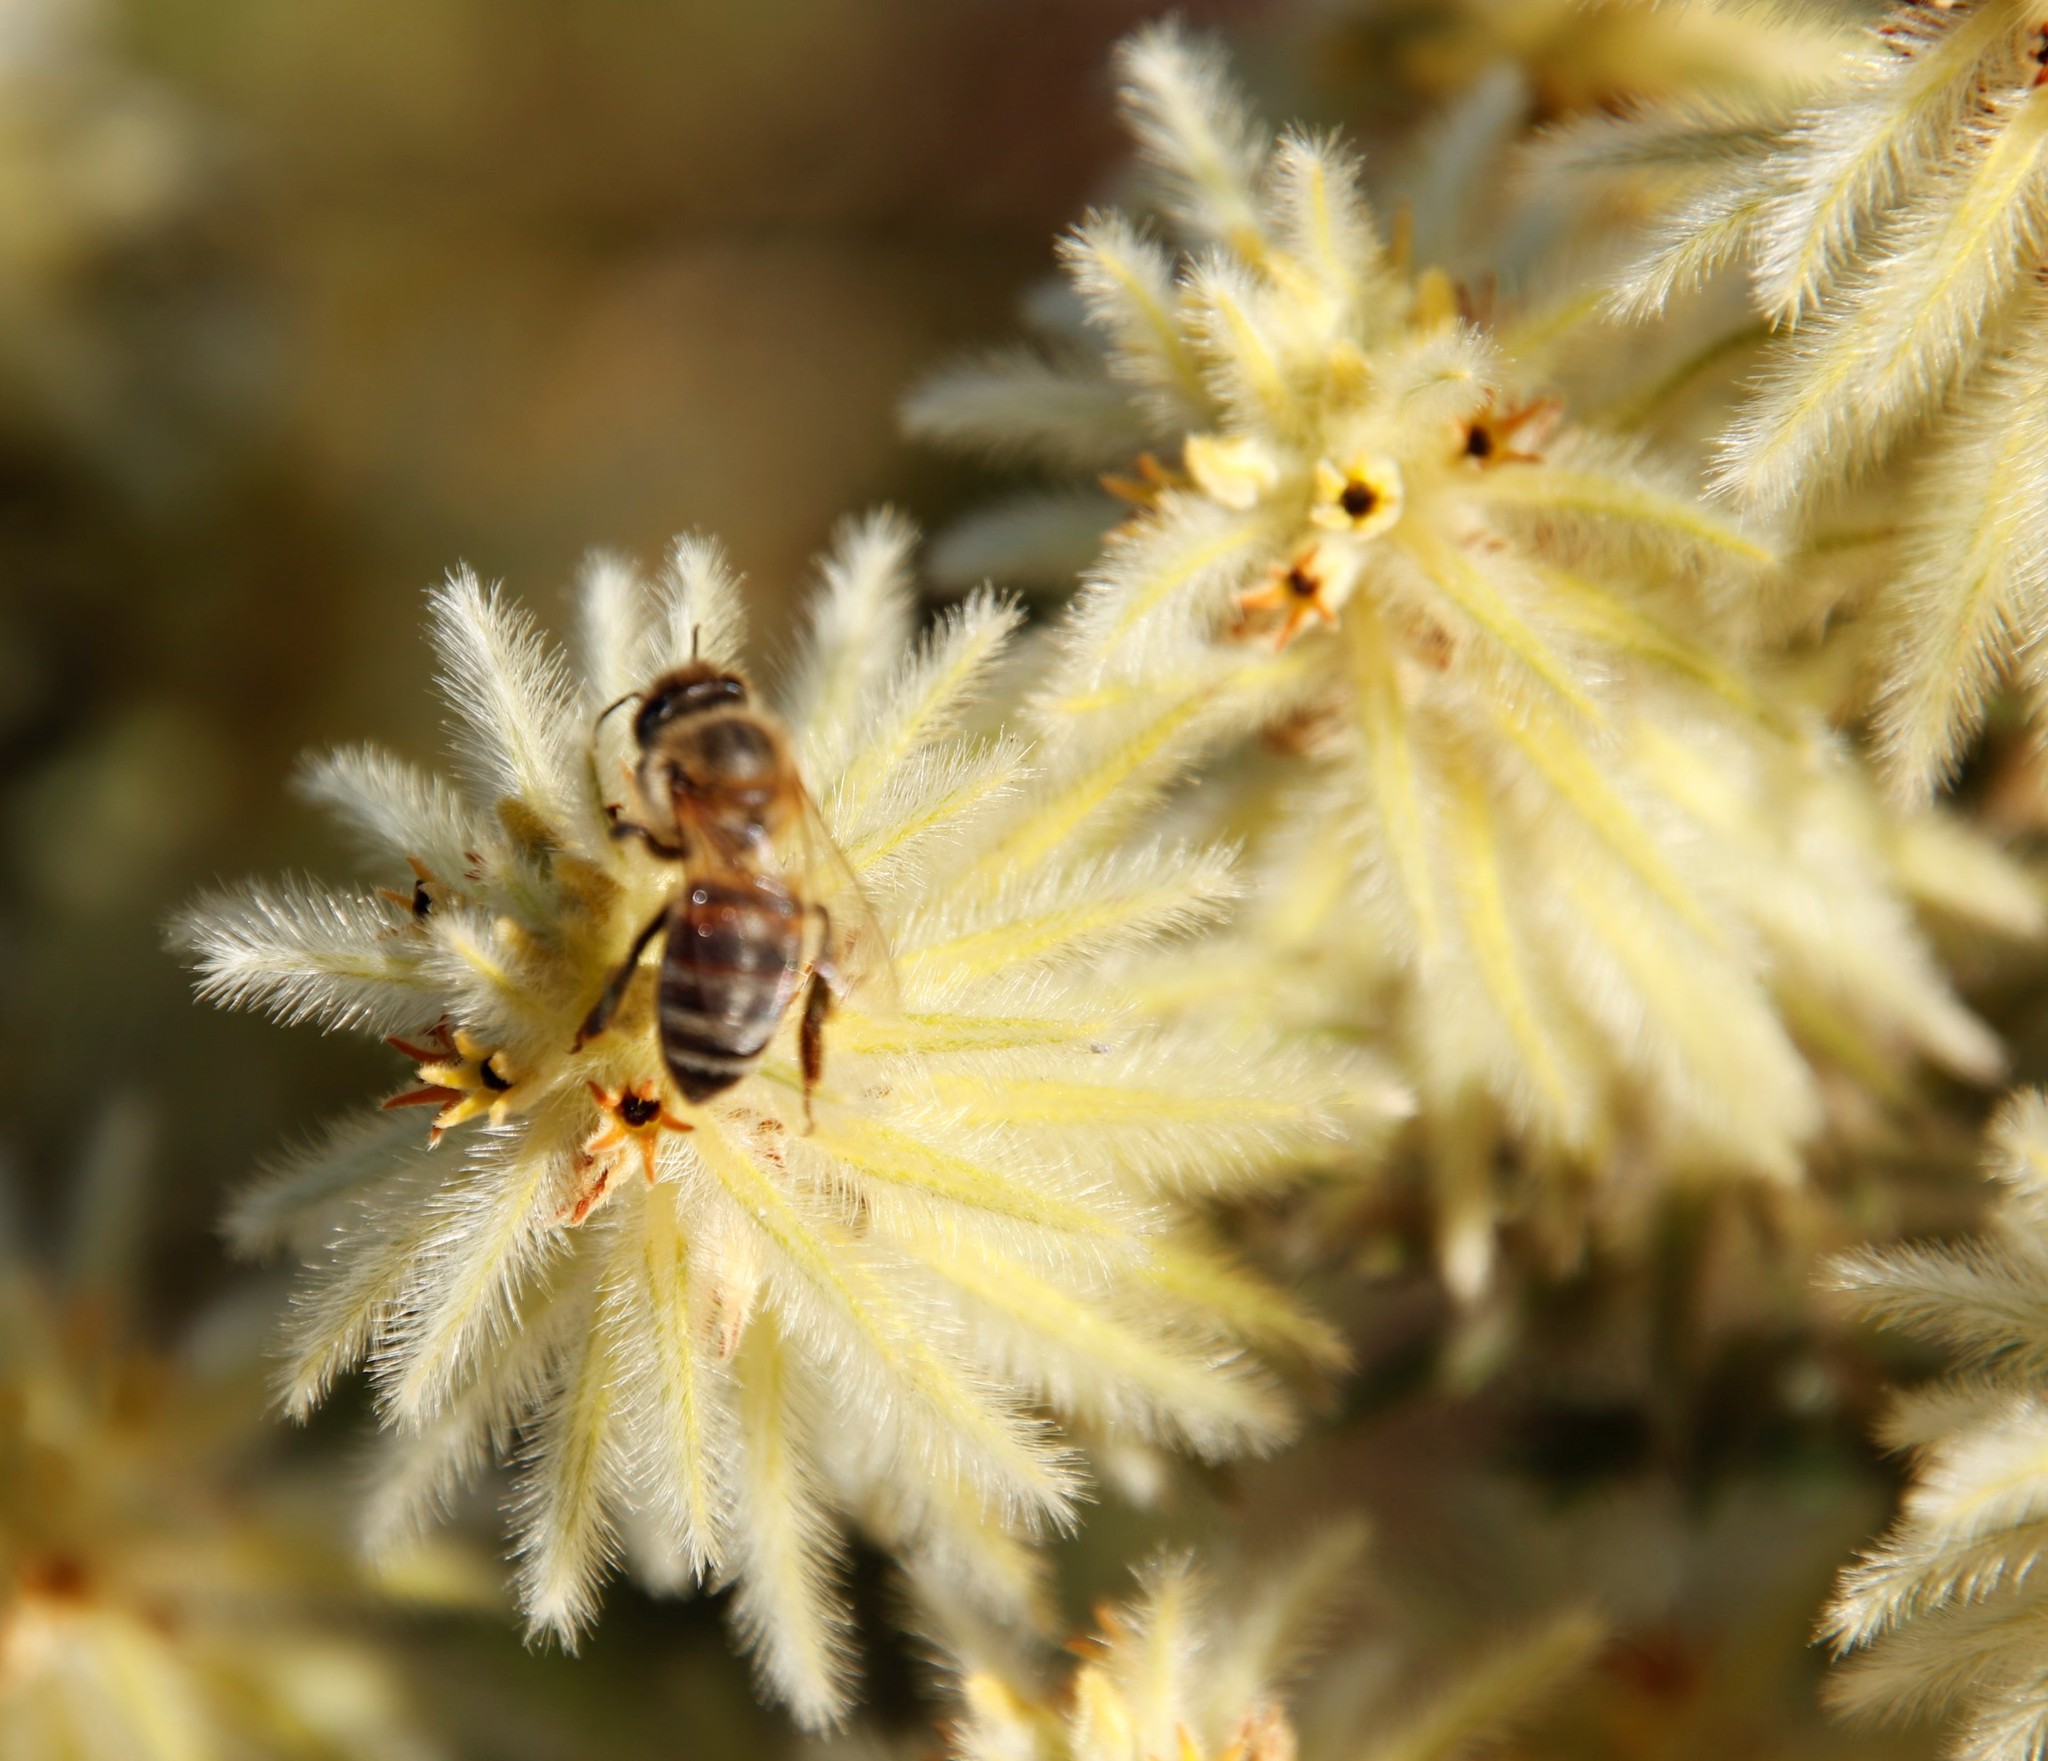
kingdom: Animalia
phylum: Arthropoda
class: Insecta
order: Hymenoptera
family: Apidae
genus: Apis
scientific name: Apis mellifera
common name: Honey bee
